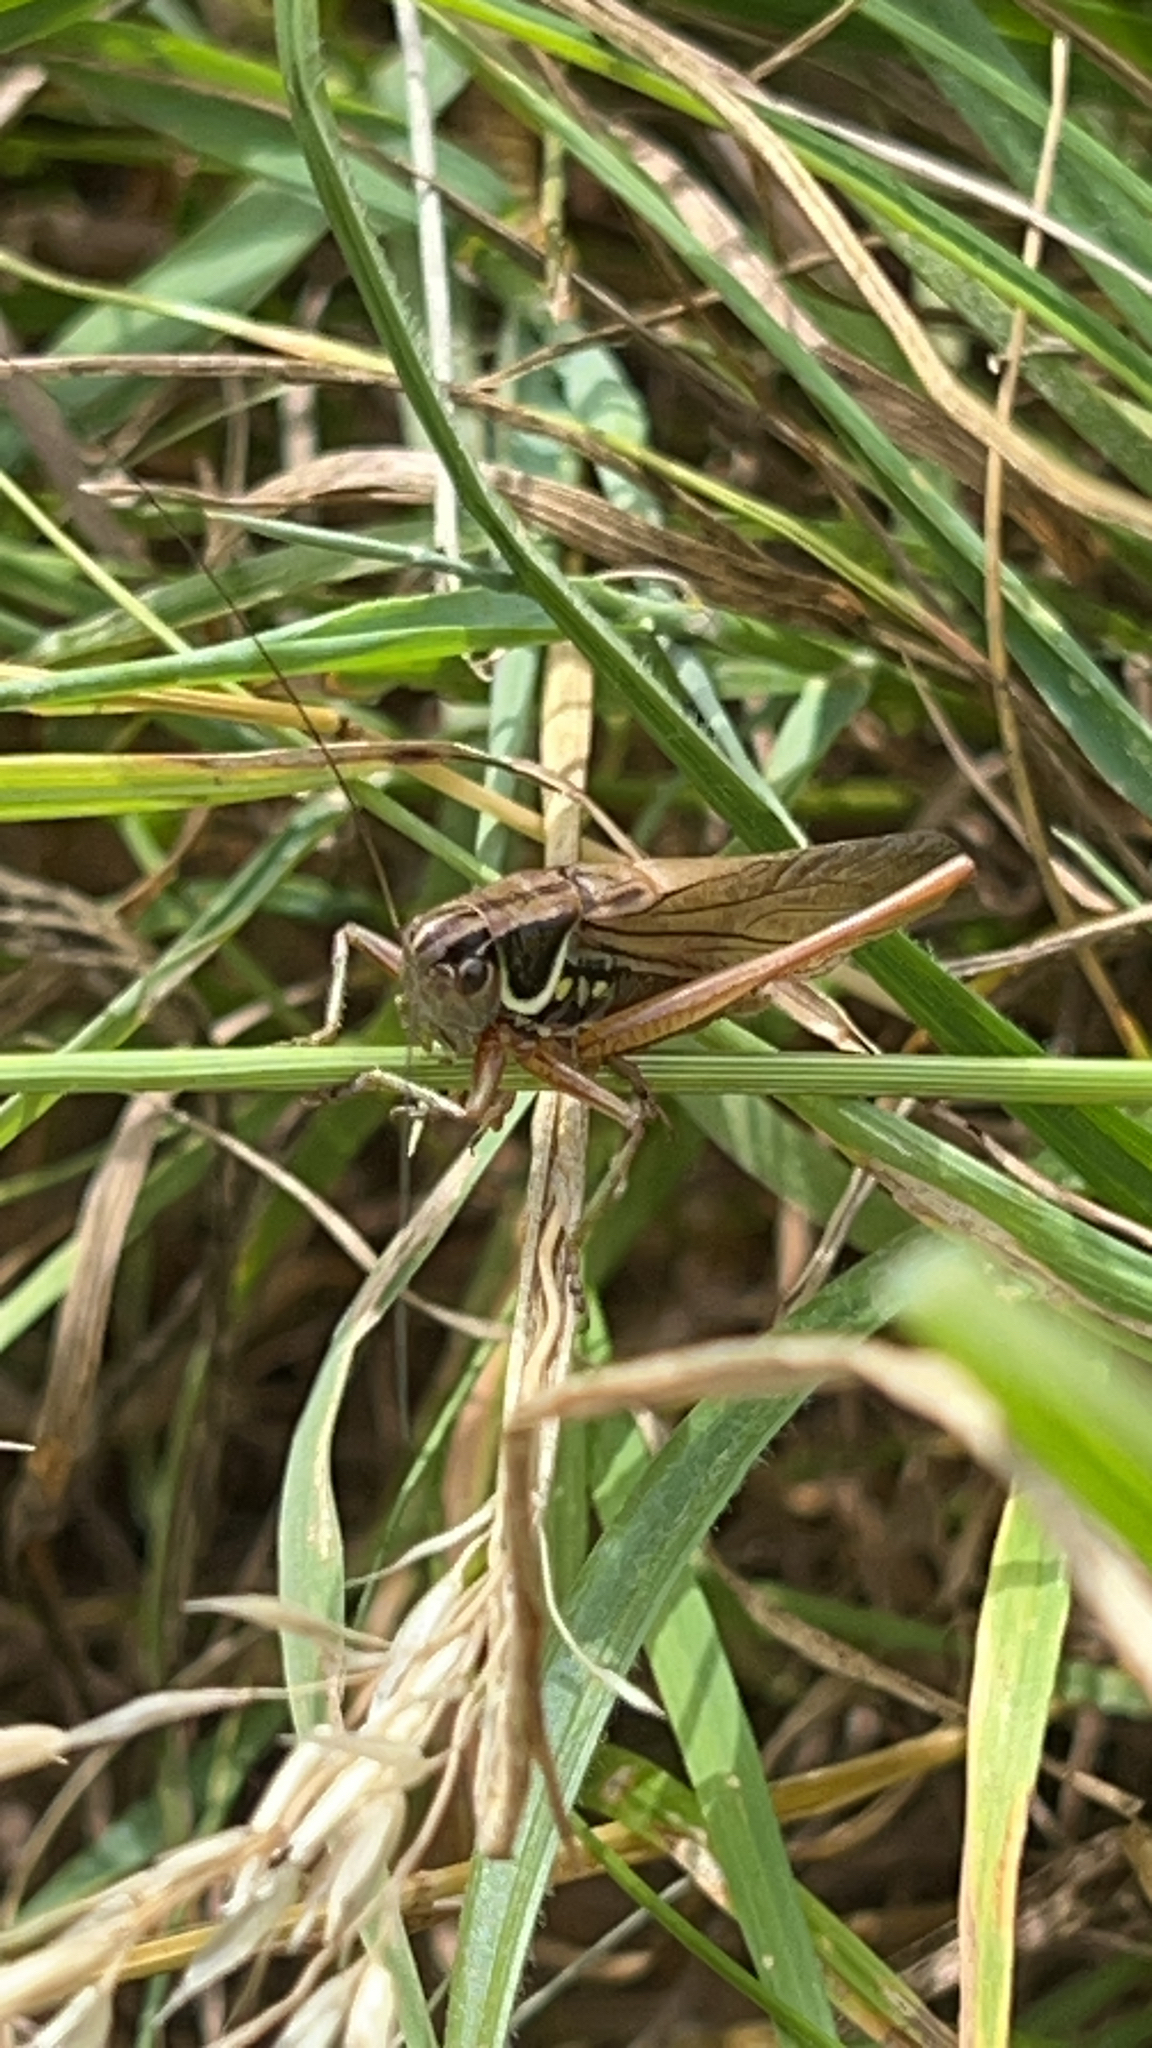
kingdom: Animalia
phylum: Arthropoda
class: Insecta
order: Orthoptera
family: Tettigoniidae
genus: Roeseliana
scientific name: Roeseliana roeselii
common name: Roesel's bush cricket
